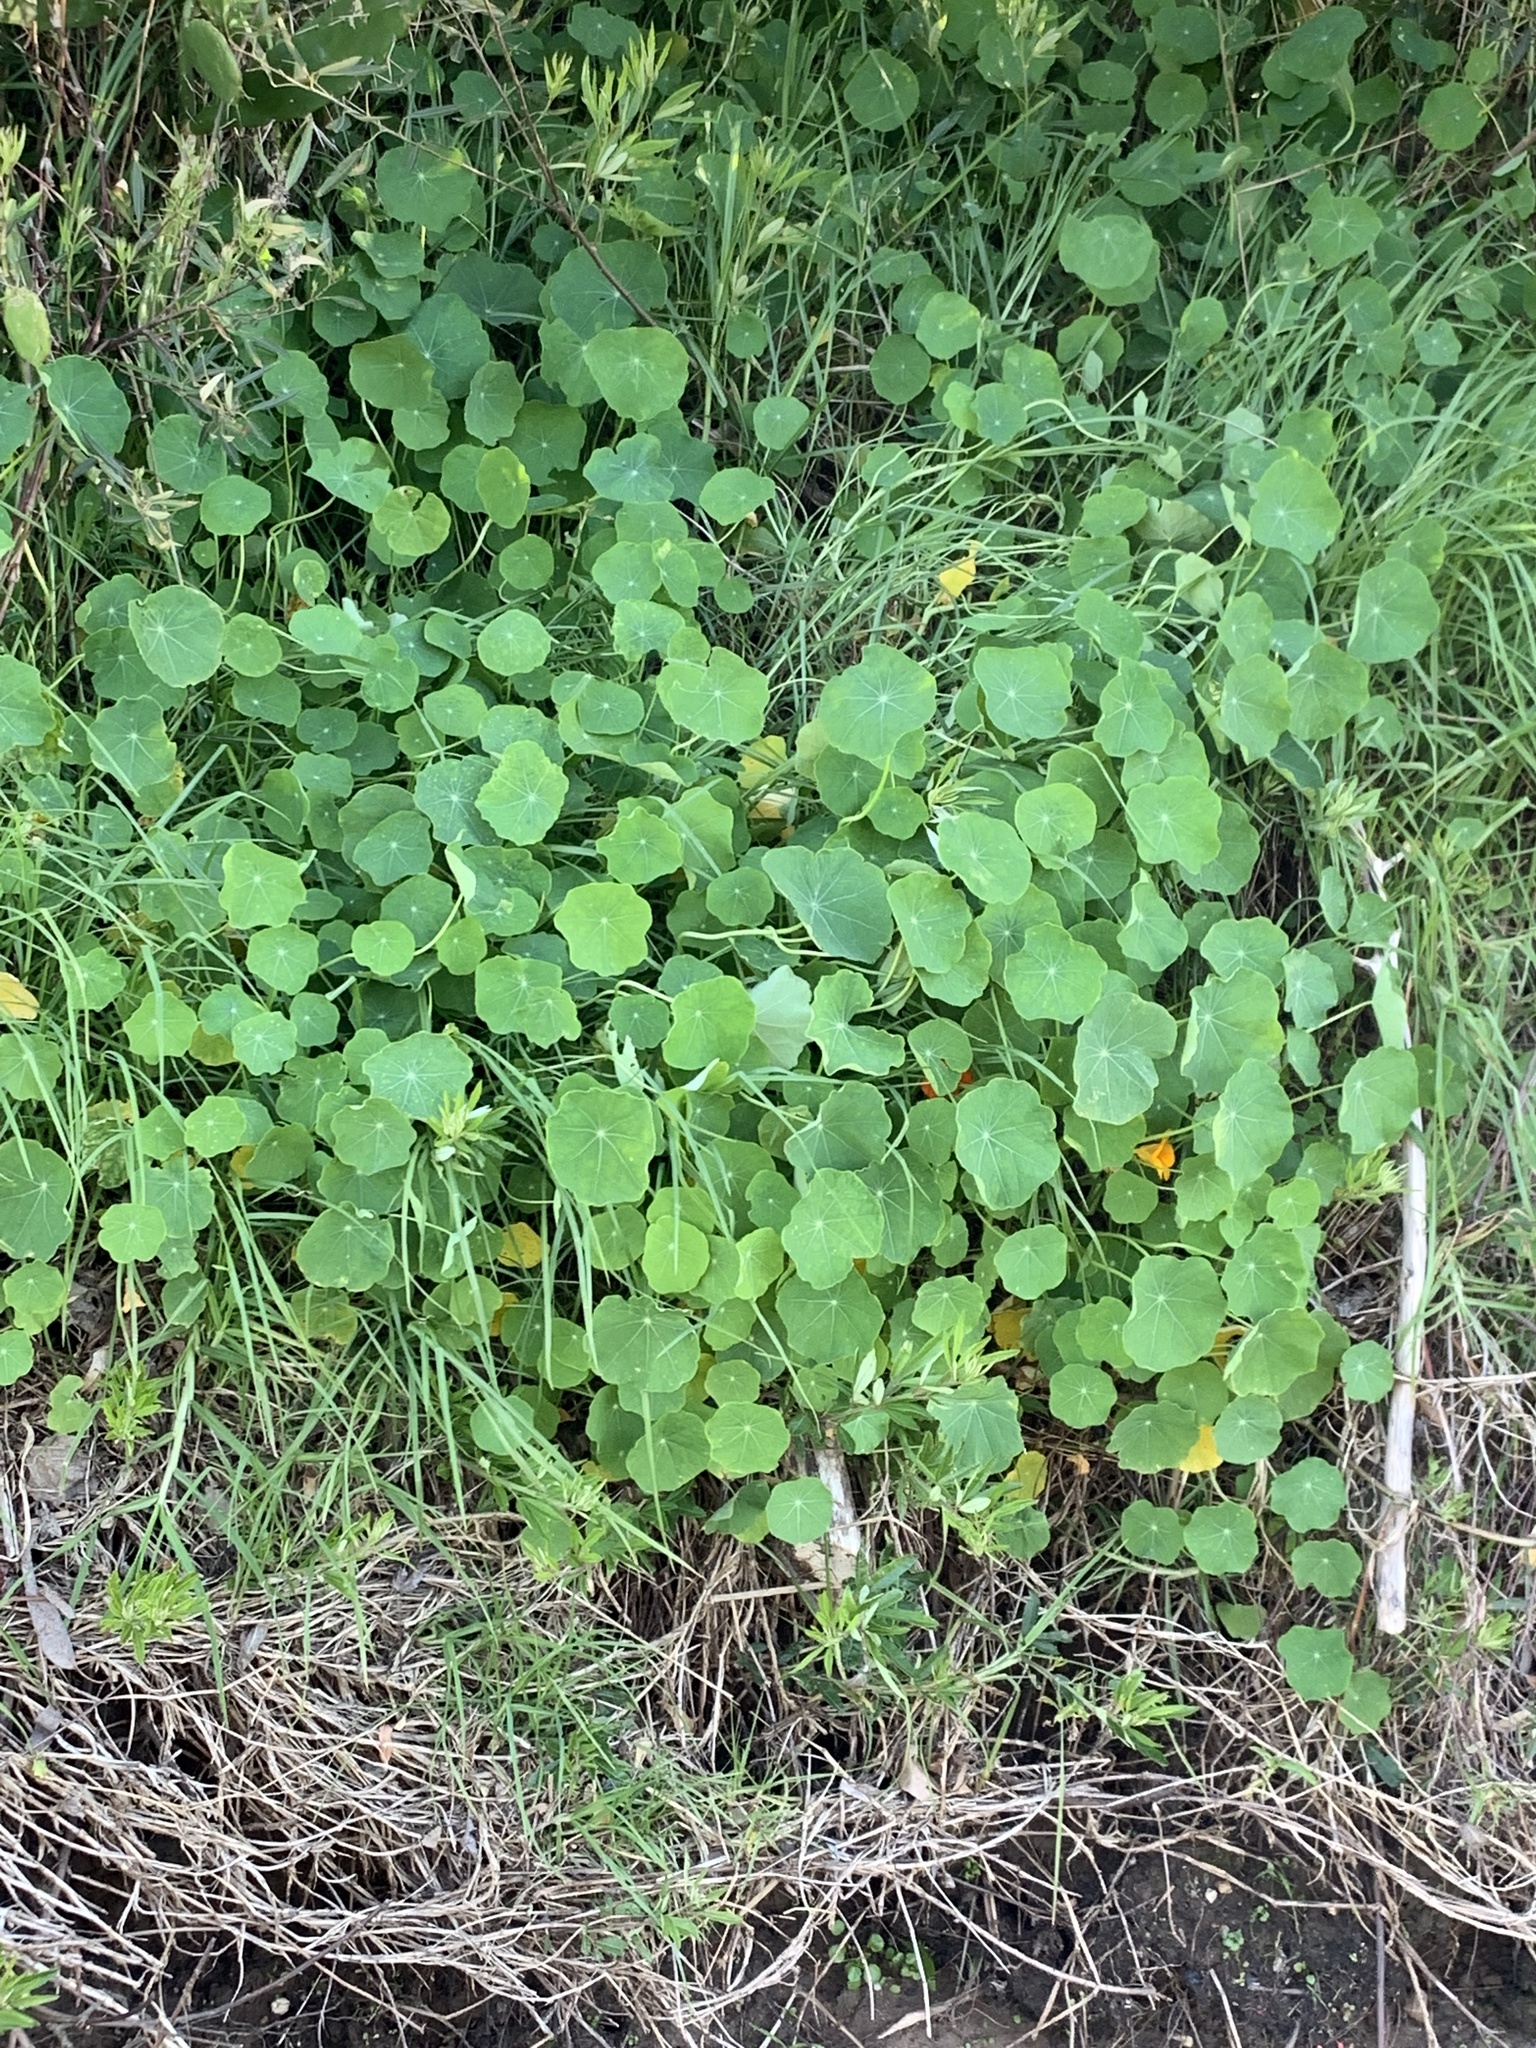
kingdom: Plantae
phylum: Tracheophyta
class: Magnoliopsida
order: Brassicales
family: Tropaeolaceae
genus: Tropaeolum
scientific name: Tropaeolum majus
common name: Nasturtium
